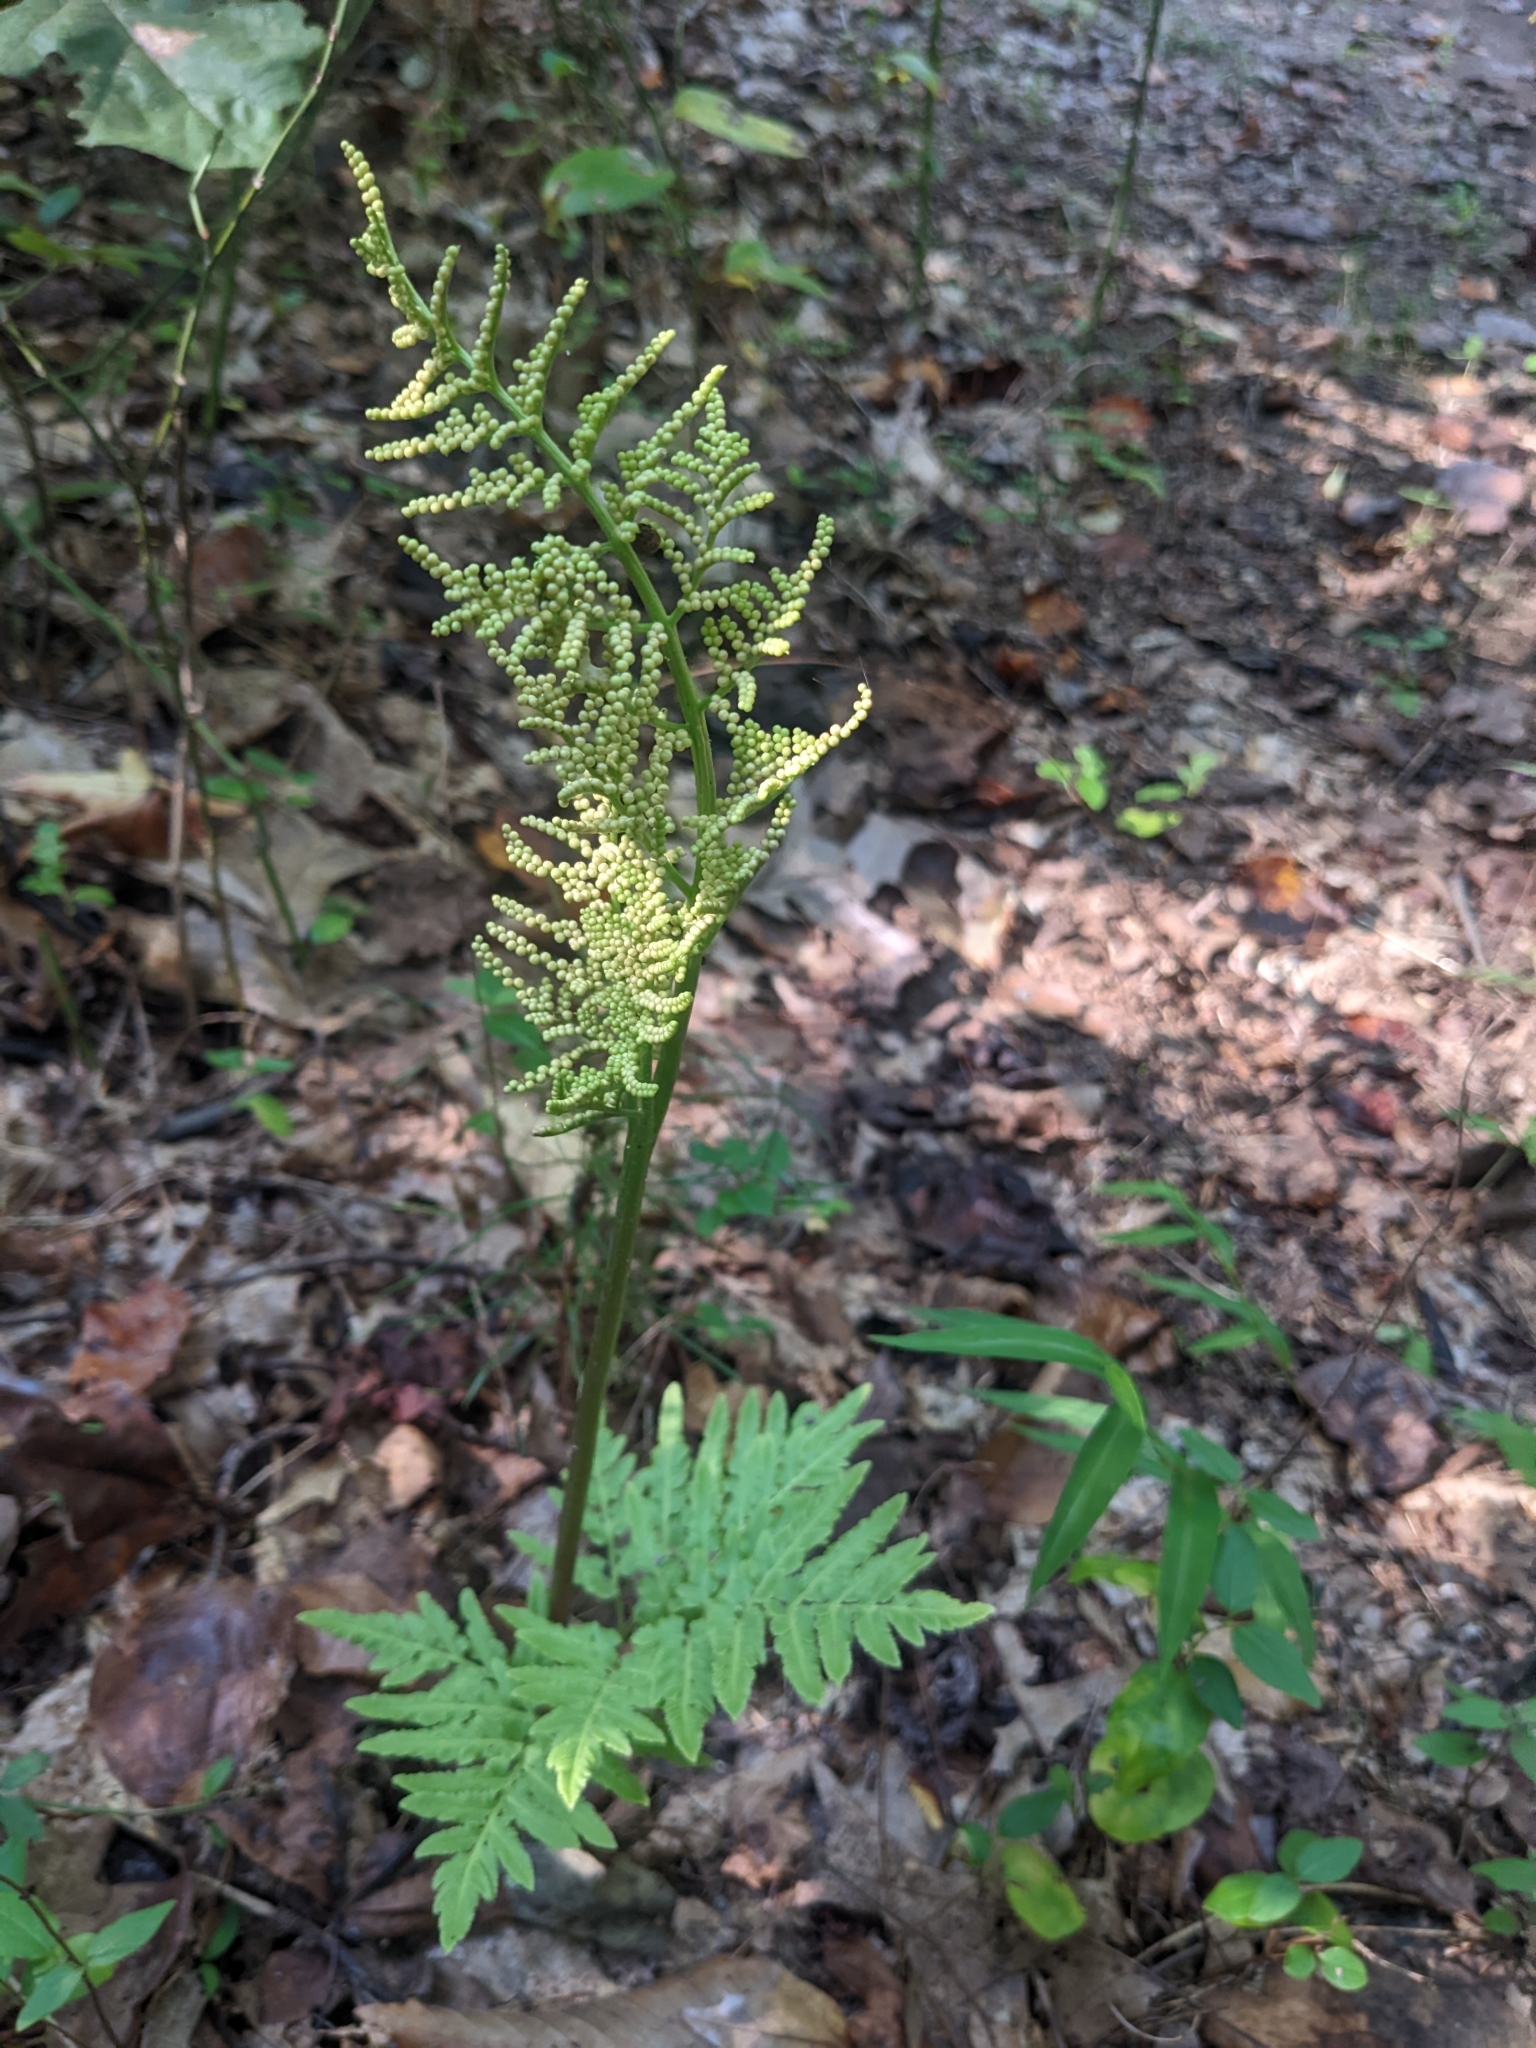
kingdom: Plantae
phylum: Tracheophyta
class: Polypodiopsida
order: Ophioglossales
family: Ophioglossaceae
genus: Sceptridium
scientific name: Sceptridium dissectum
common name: Cut-leaved grapefern
